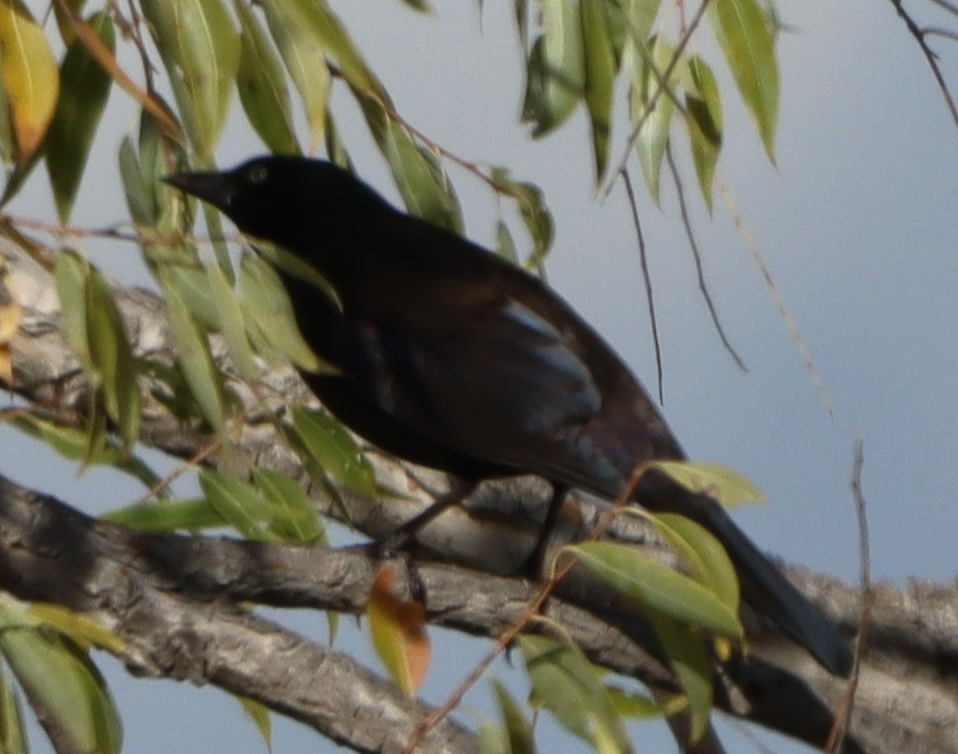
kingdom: Animalia
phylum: Chordata
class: Aves
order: Passeriformes
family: Icteridae
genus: Quiscalus
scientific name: Quiscalus quiscula
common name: Common grackle
